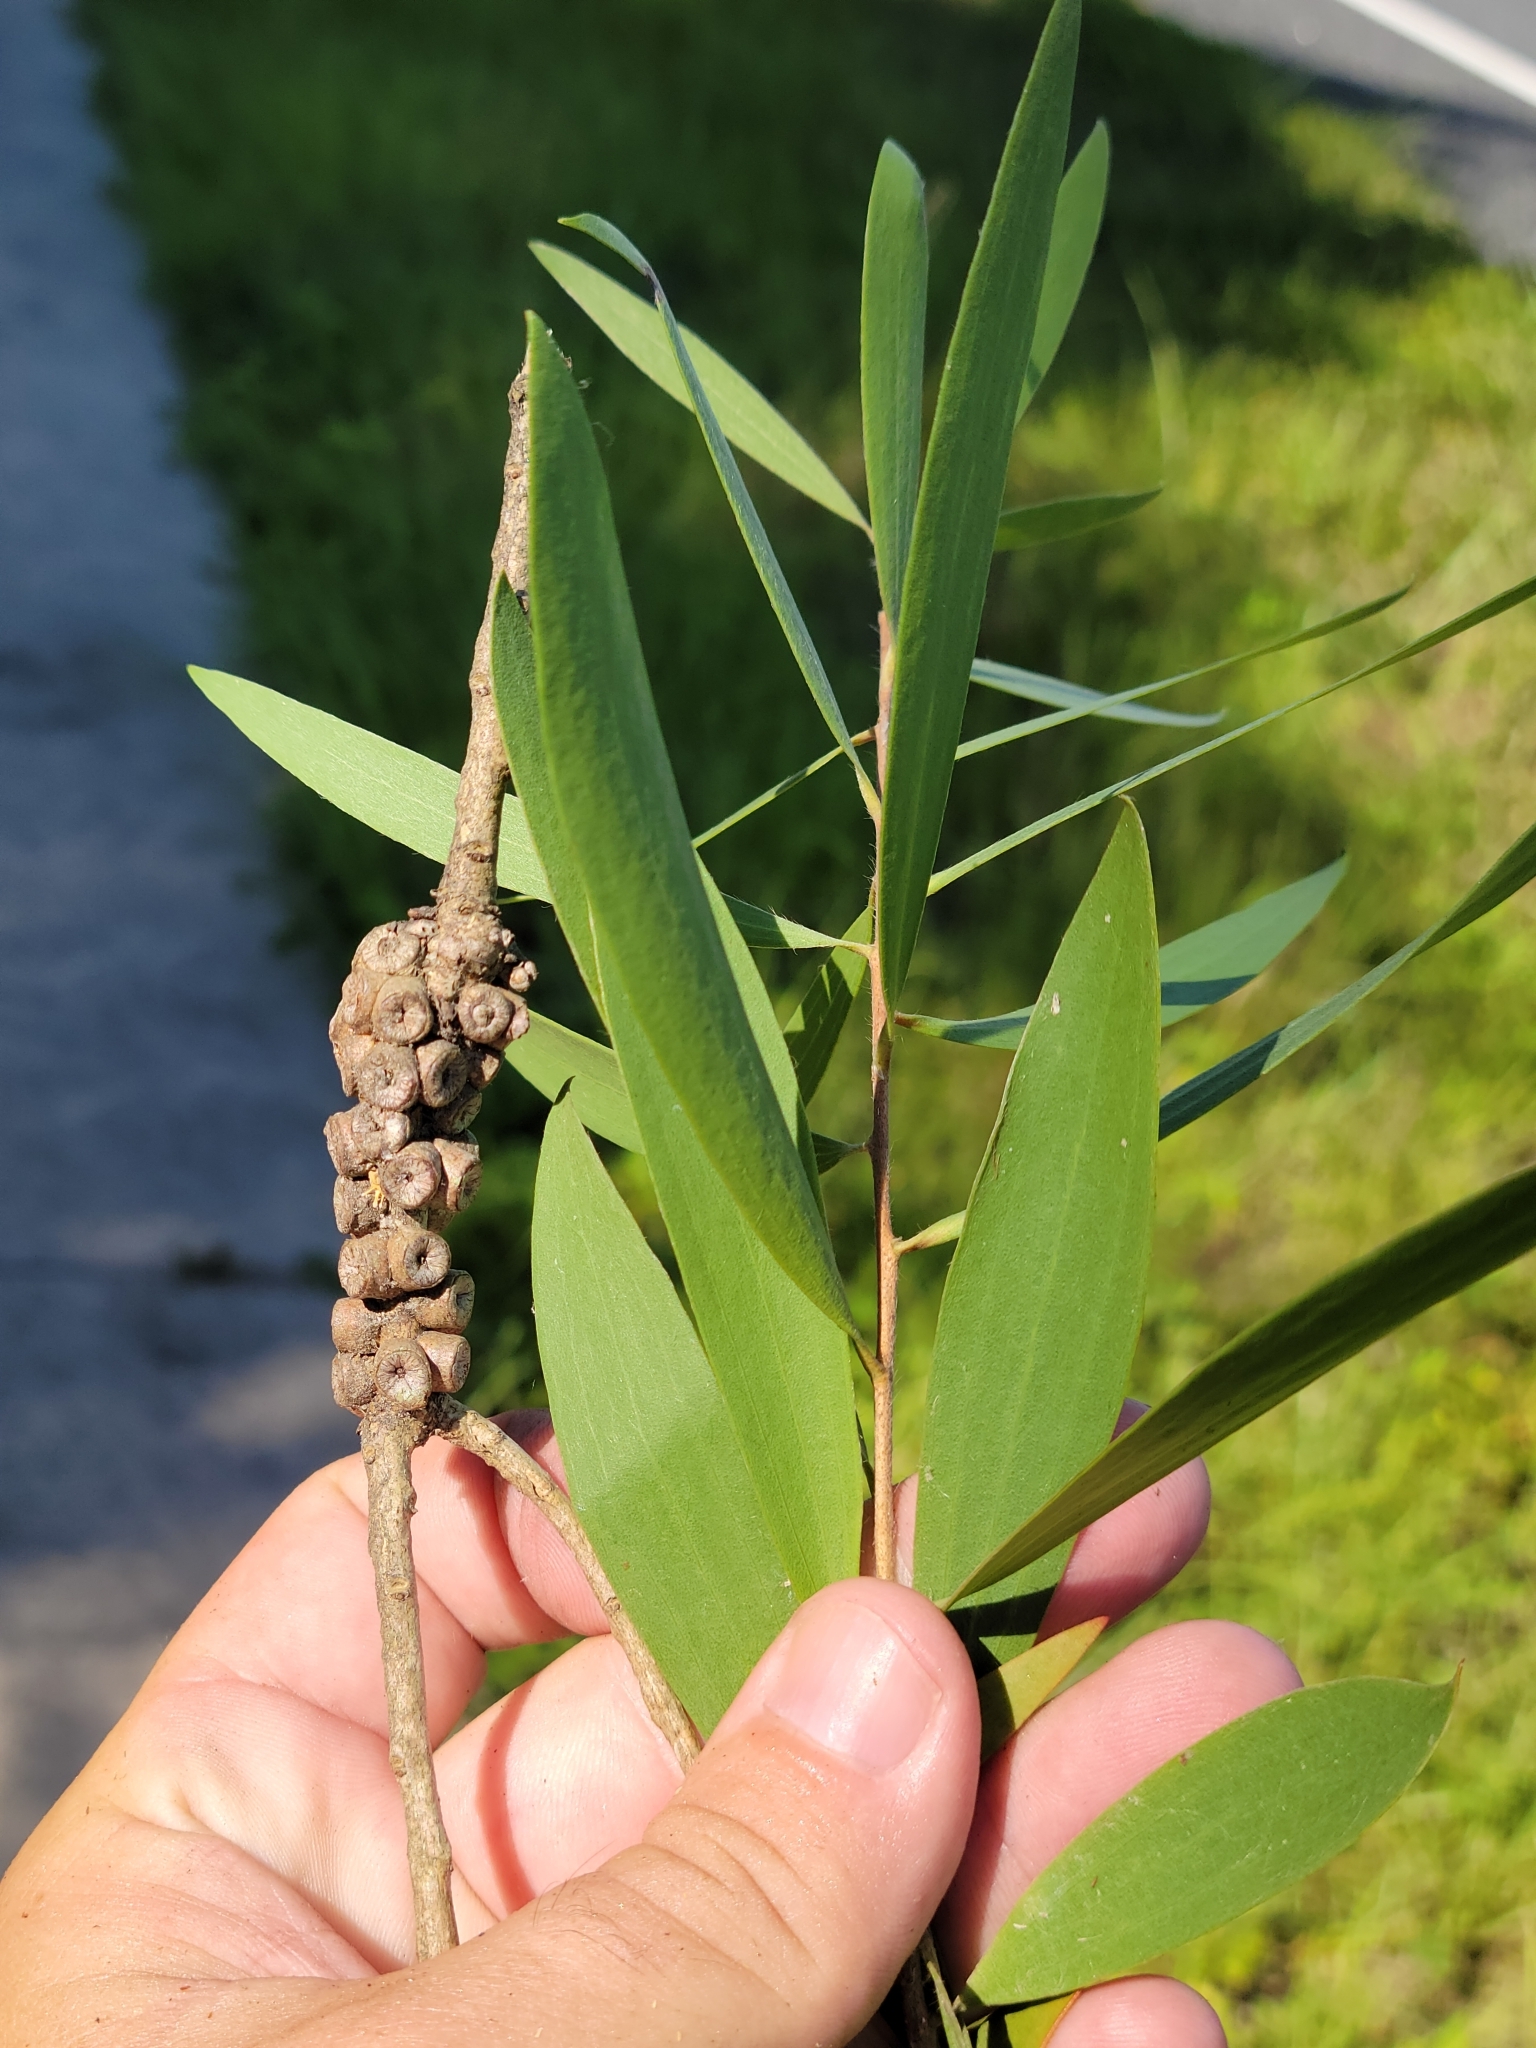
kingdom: Plantae
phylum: Tracheophyta
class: Magnoliopsida
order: Myrtales
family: Myrtaceae
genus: Melaleuca
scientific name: Melaleuca quinquenervia
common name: Punktree
